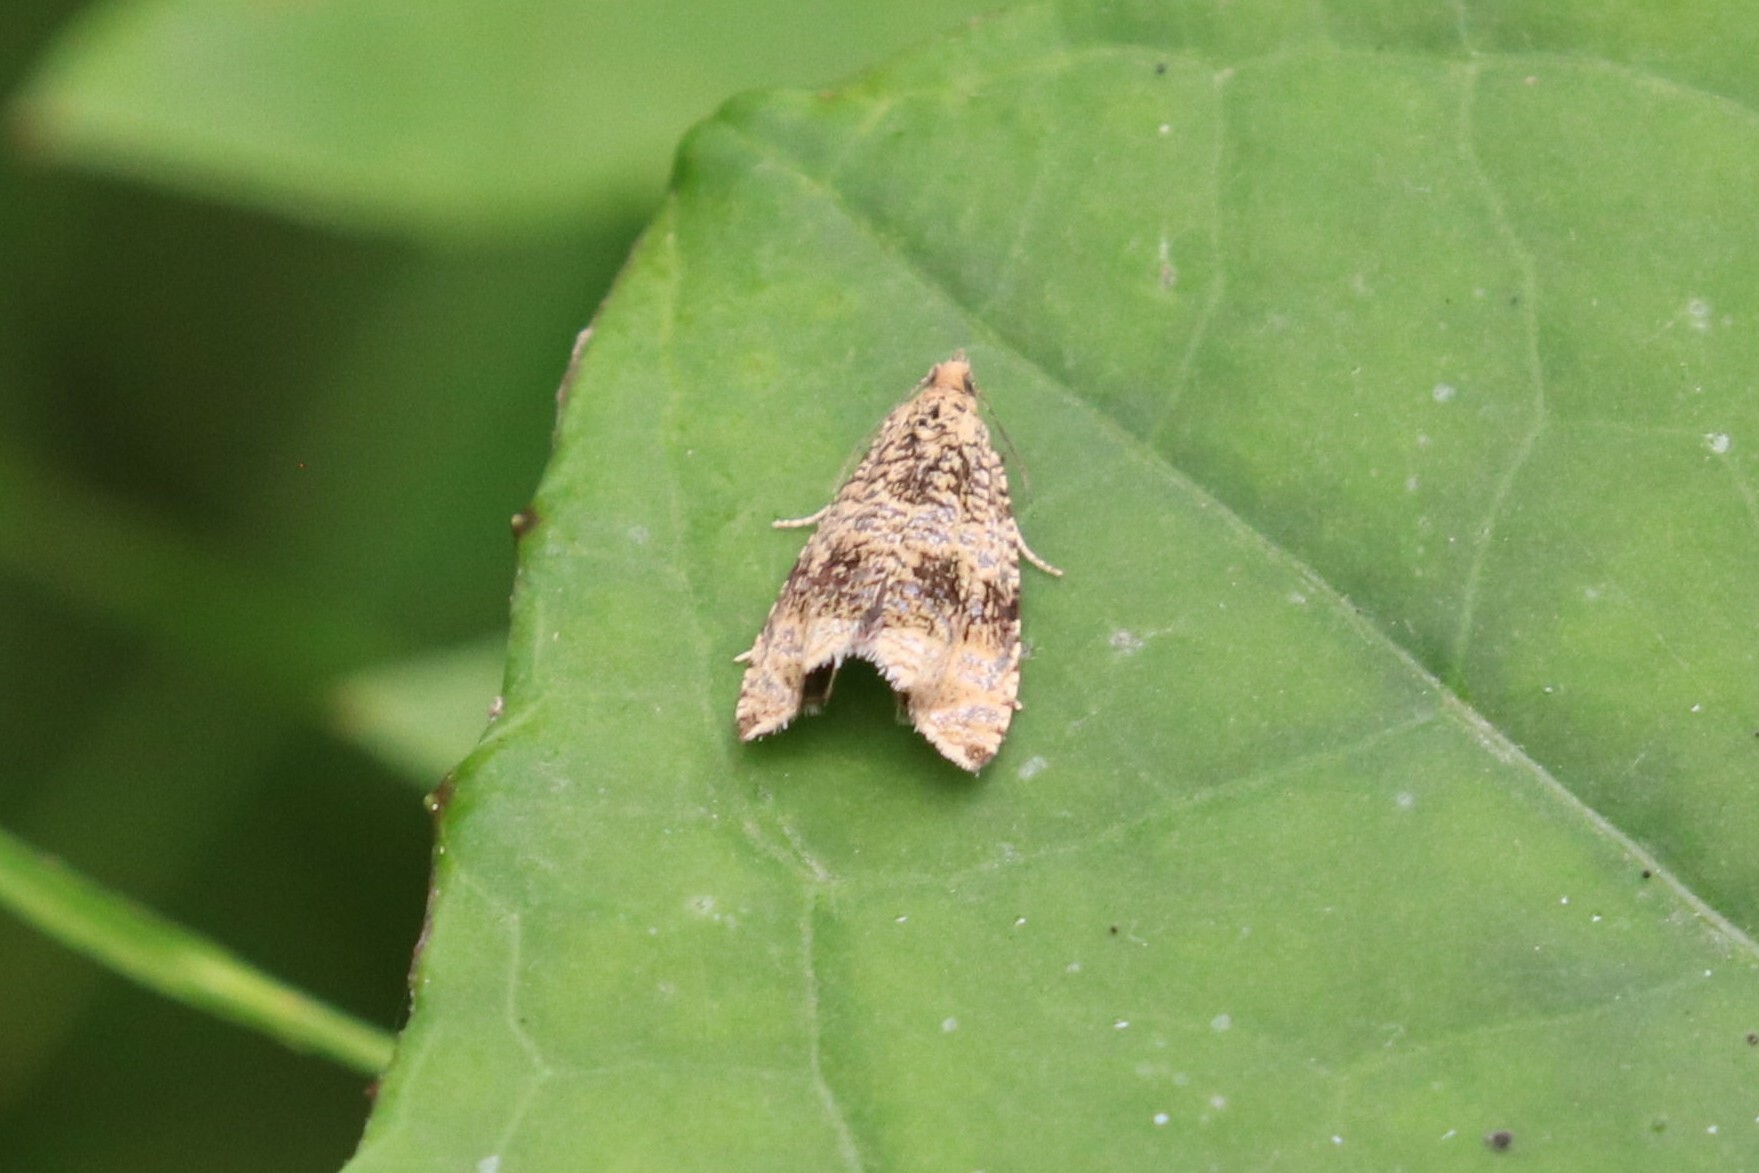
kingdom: Animalia
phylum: Arthropoda
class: Insecta
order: Lepidoptera
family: Tortricidae
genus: Syricoris
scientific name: Syricoris lacunana
